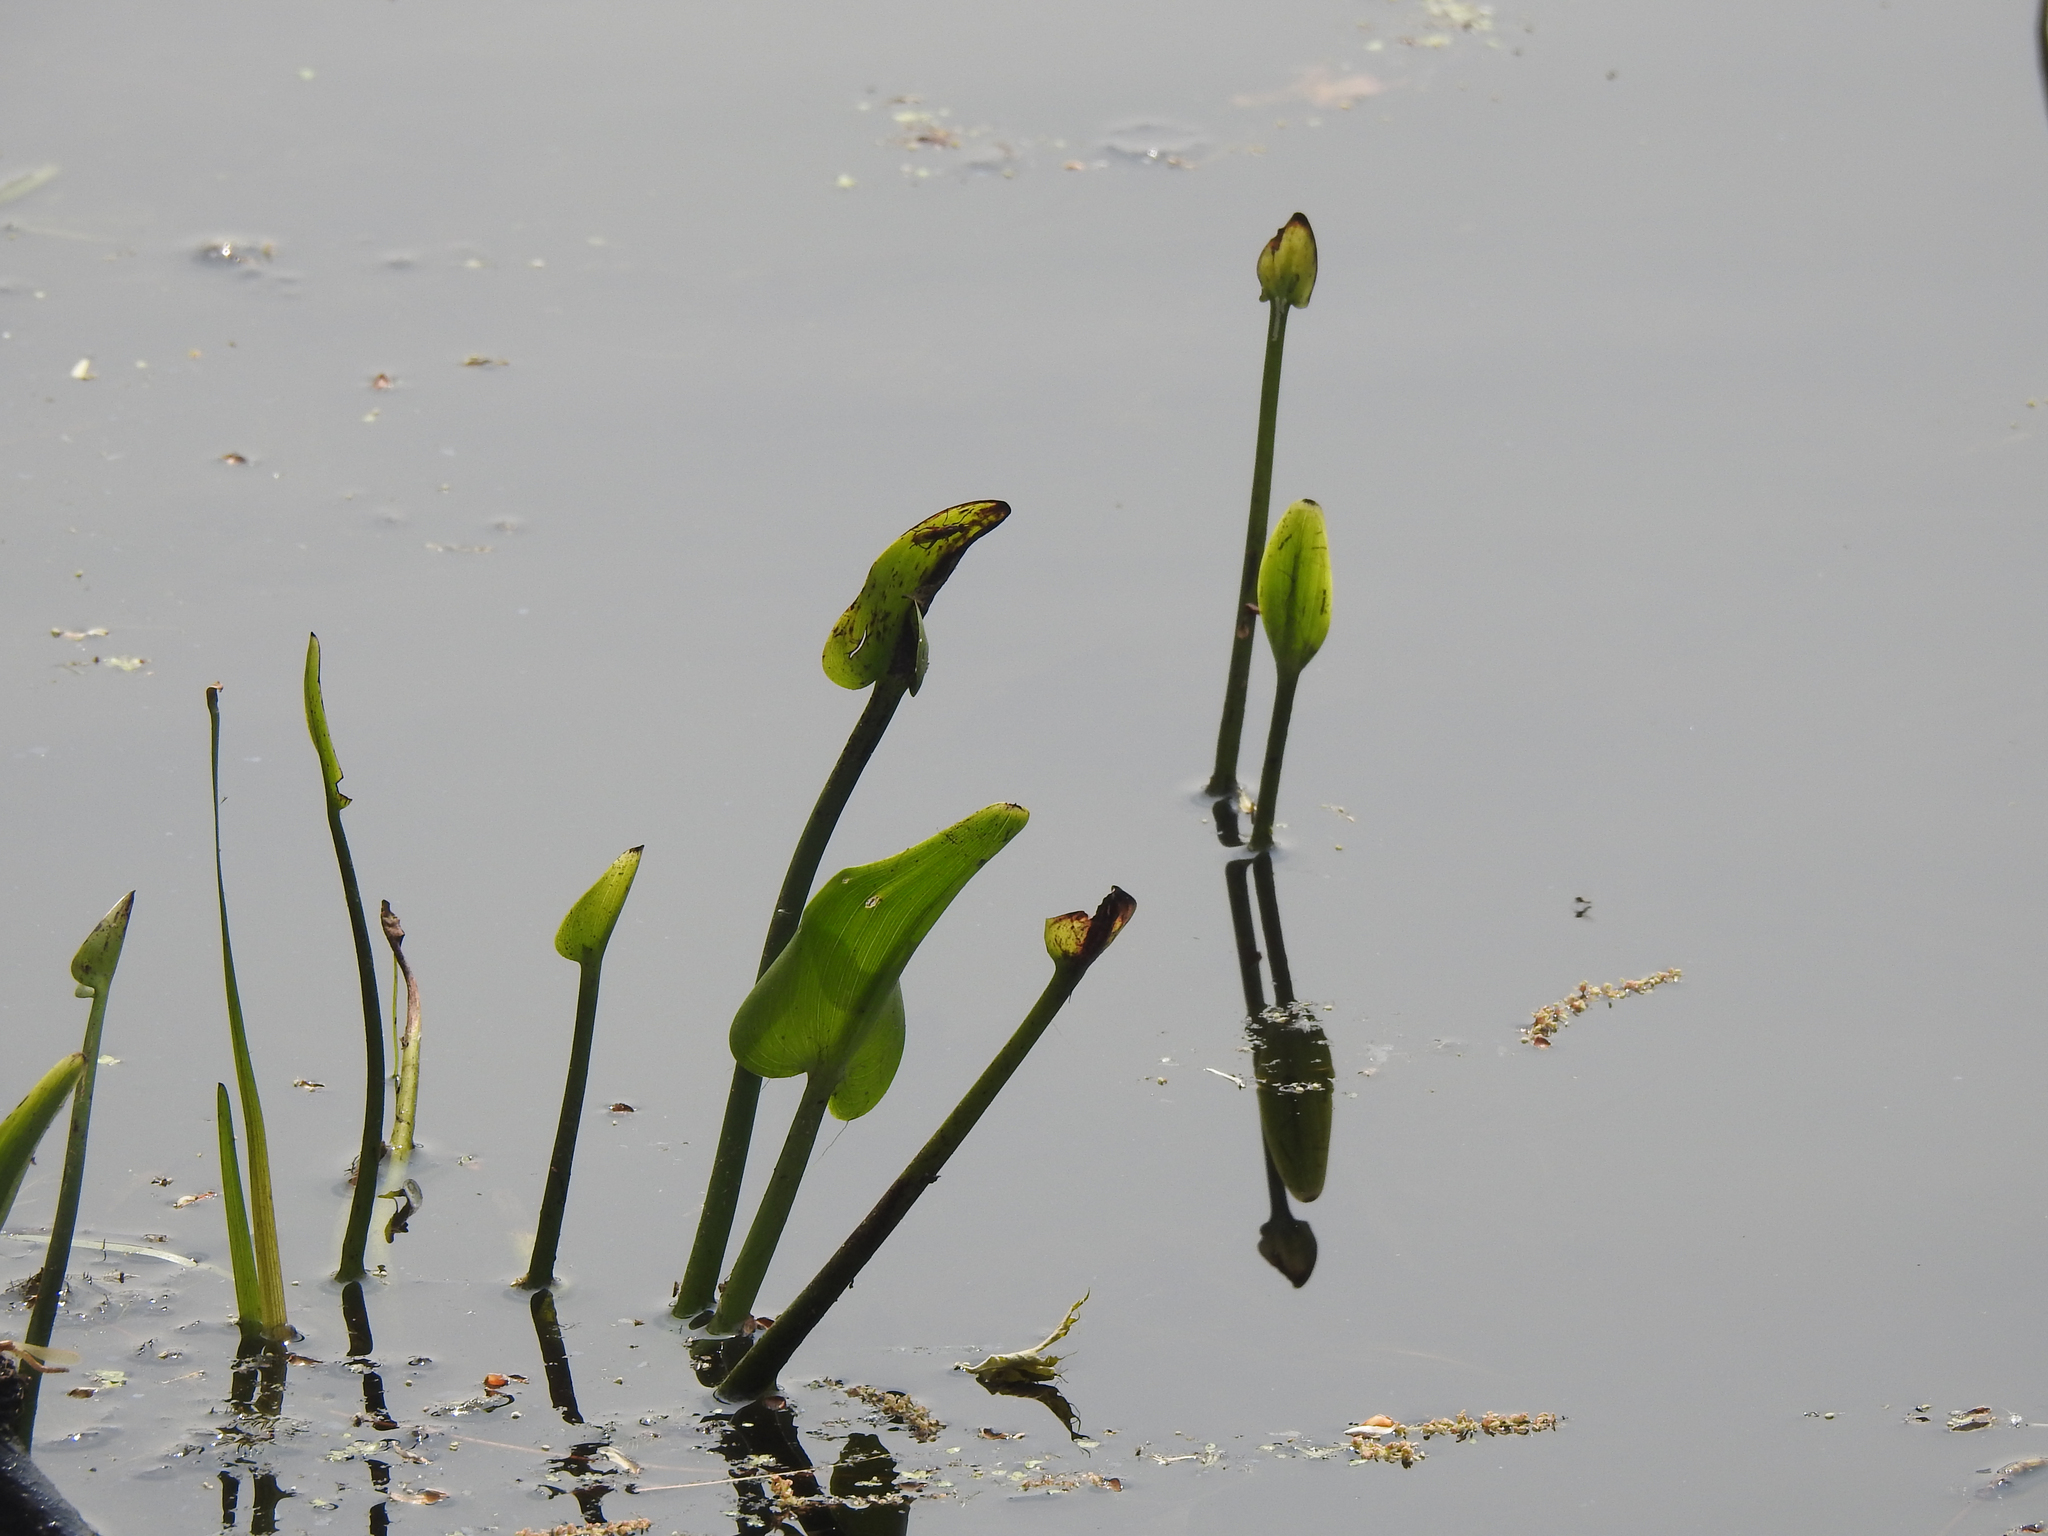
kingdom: Plantae
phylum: Tracheophyta
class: Liliopsida
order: Commelinales
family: Pontederiaceae
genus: Pontederia
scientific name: Pontederia cordata
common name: Pickerelweed
